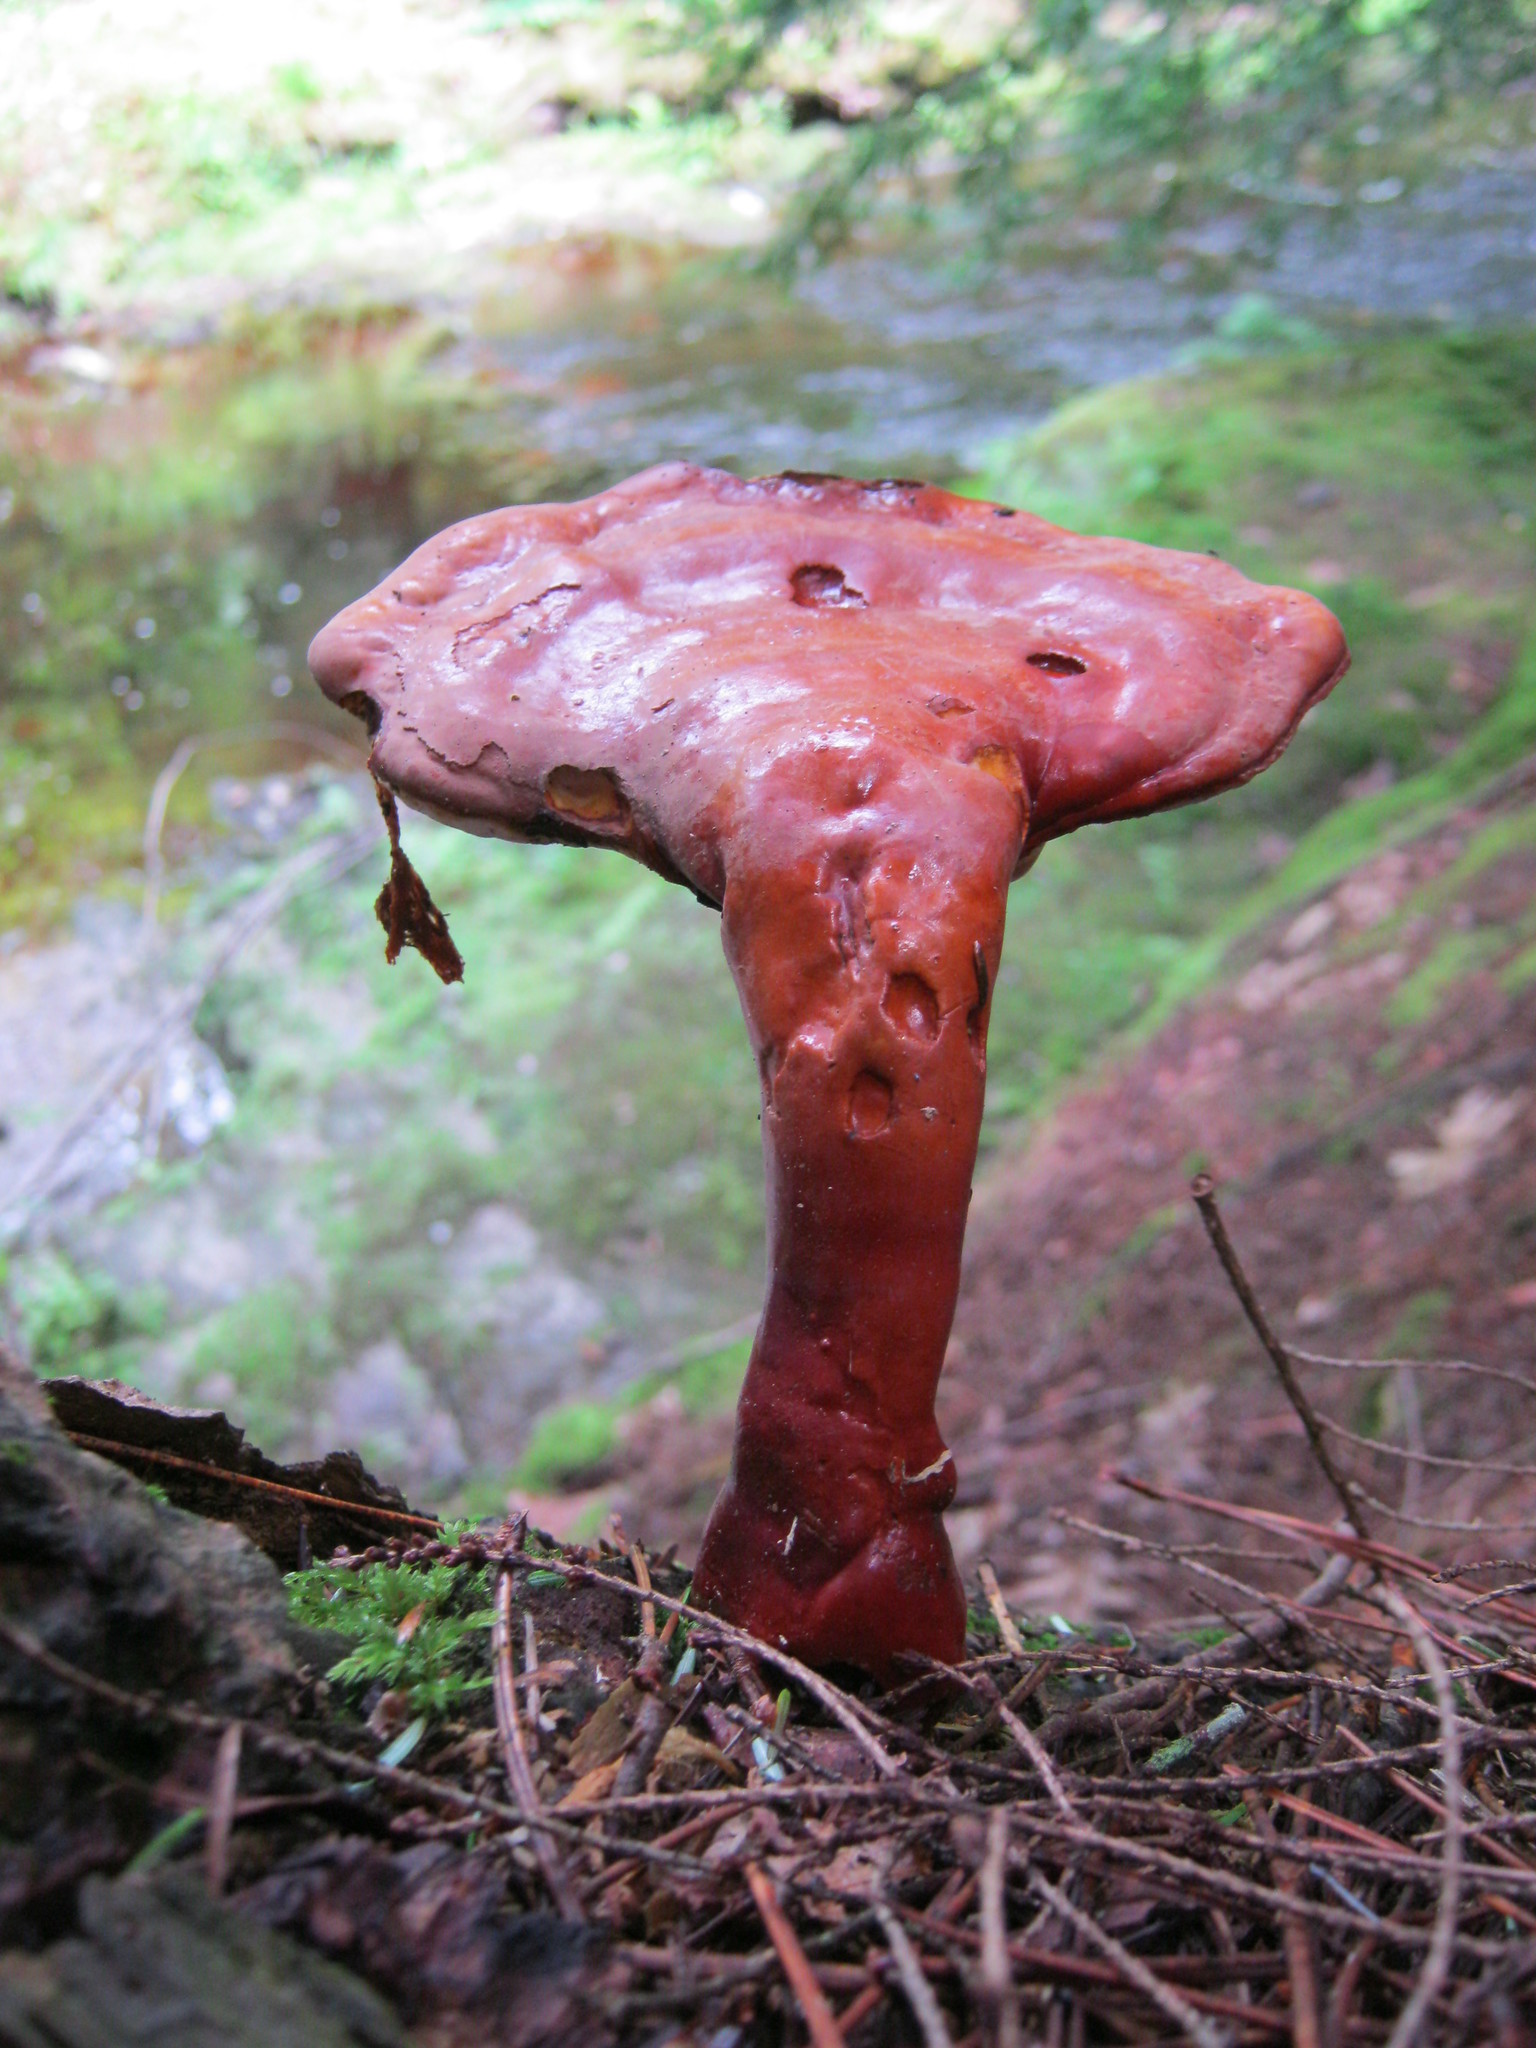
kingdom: Fungi
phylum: Basidiomycota
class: Agaricomycetes
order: Polyporales
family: Polyporaceae
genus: Ganoderma
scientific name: Ganoderma tsugae
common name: Hemlock varnish shelf
